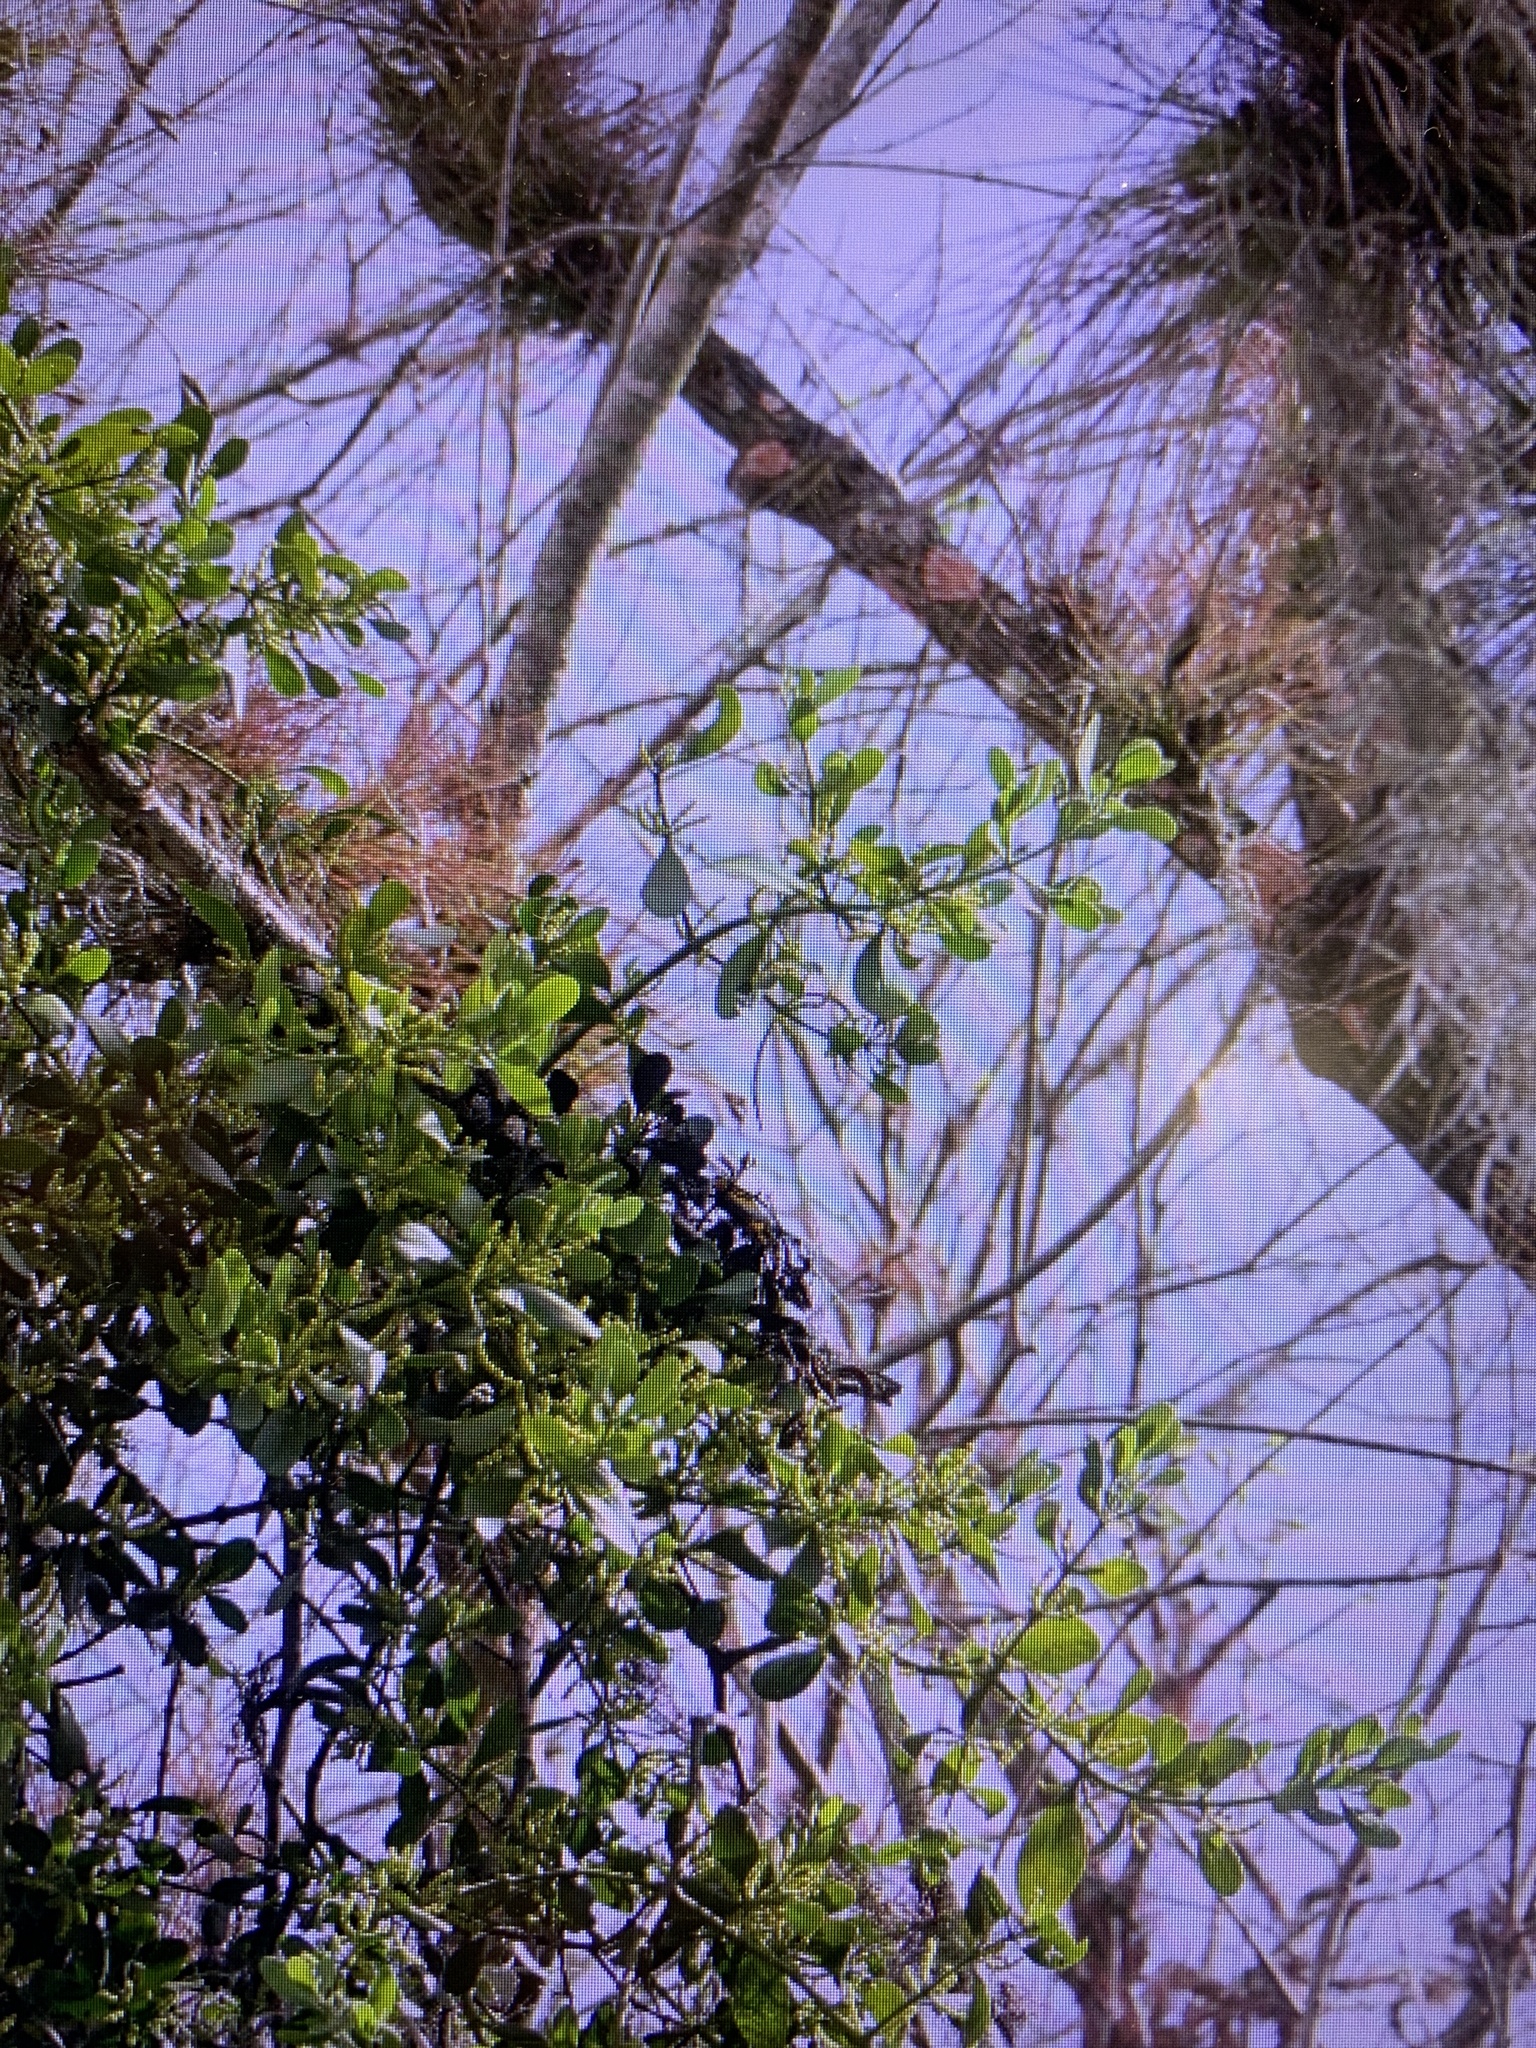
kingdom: Plantae
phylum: Tracheophyta
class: Magnoliopsida
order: Santalales
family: Viscaceae
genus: Phoradendron
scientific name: Phoradendron leucarpum
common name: Pacific mistletoe
